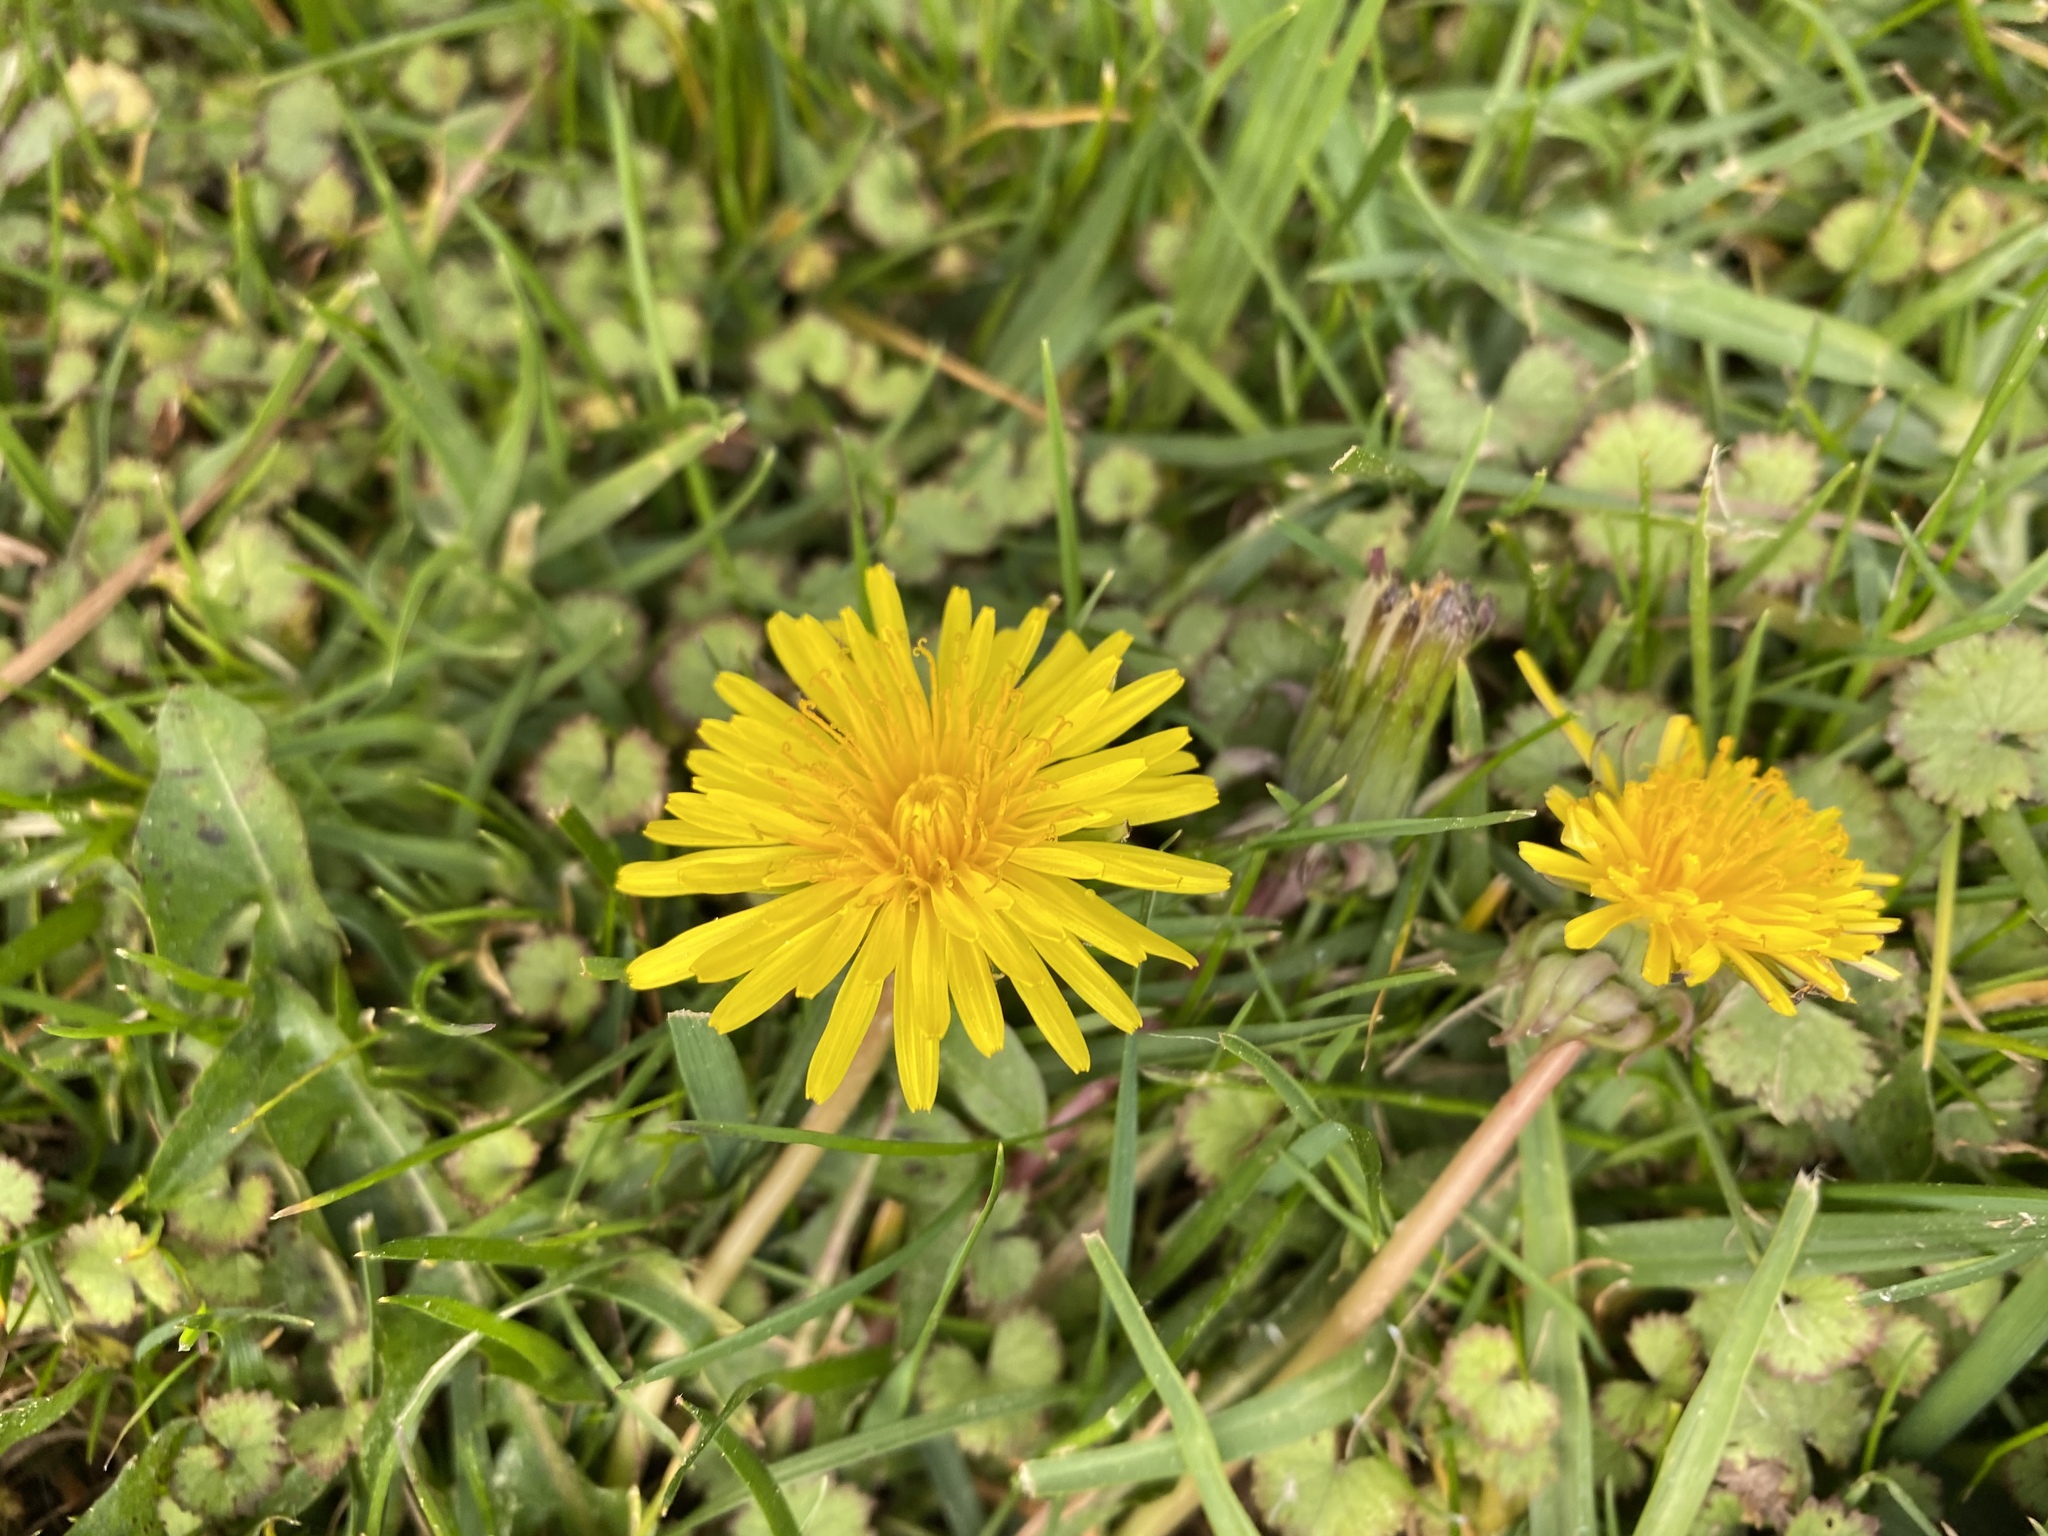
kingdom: Plantae
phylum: Tracheophyta
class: Magnoliopsida
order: Asterales
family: Asteraceae
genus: Taraxacum
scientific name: Taraxacum officinale
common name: Common dandelion
